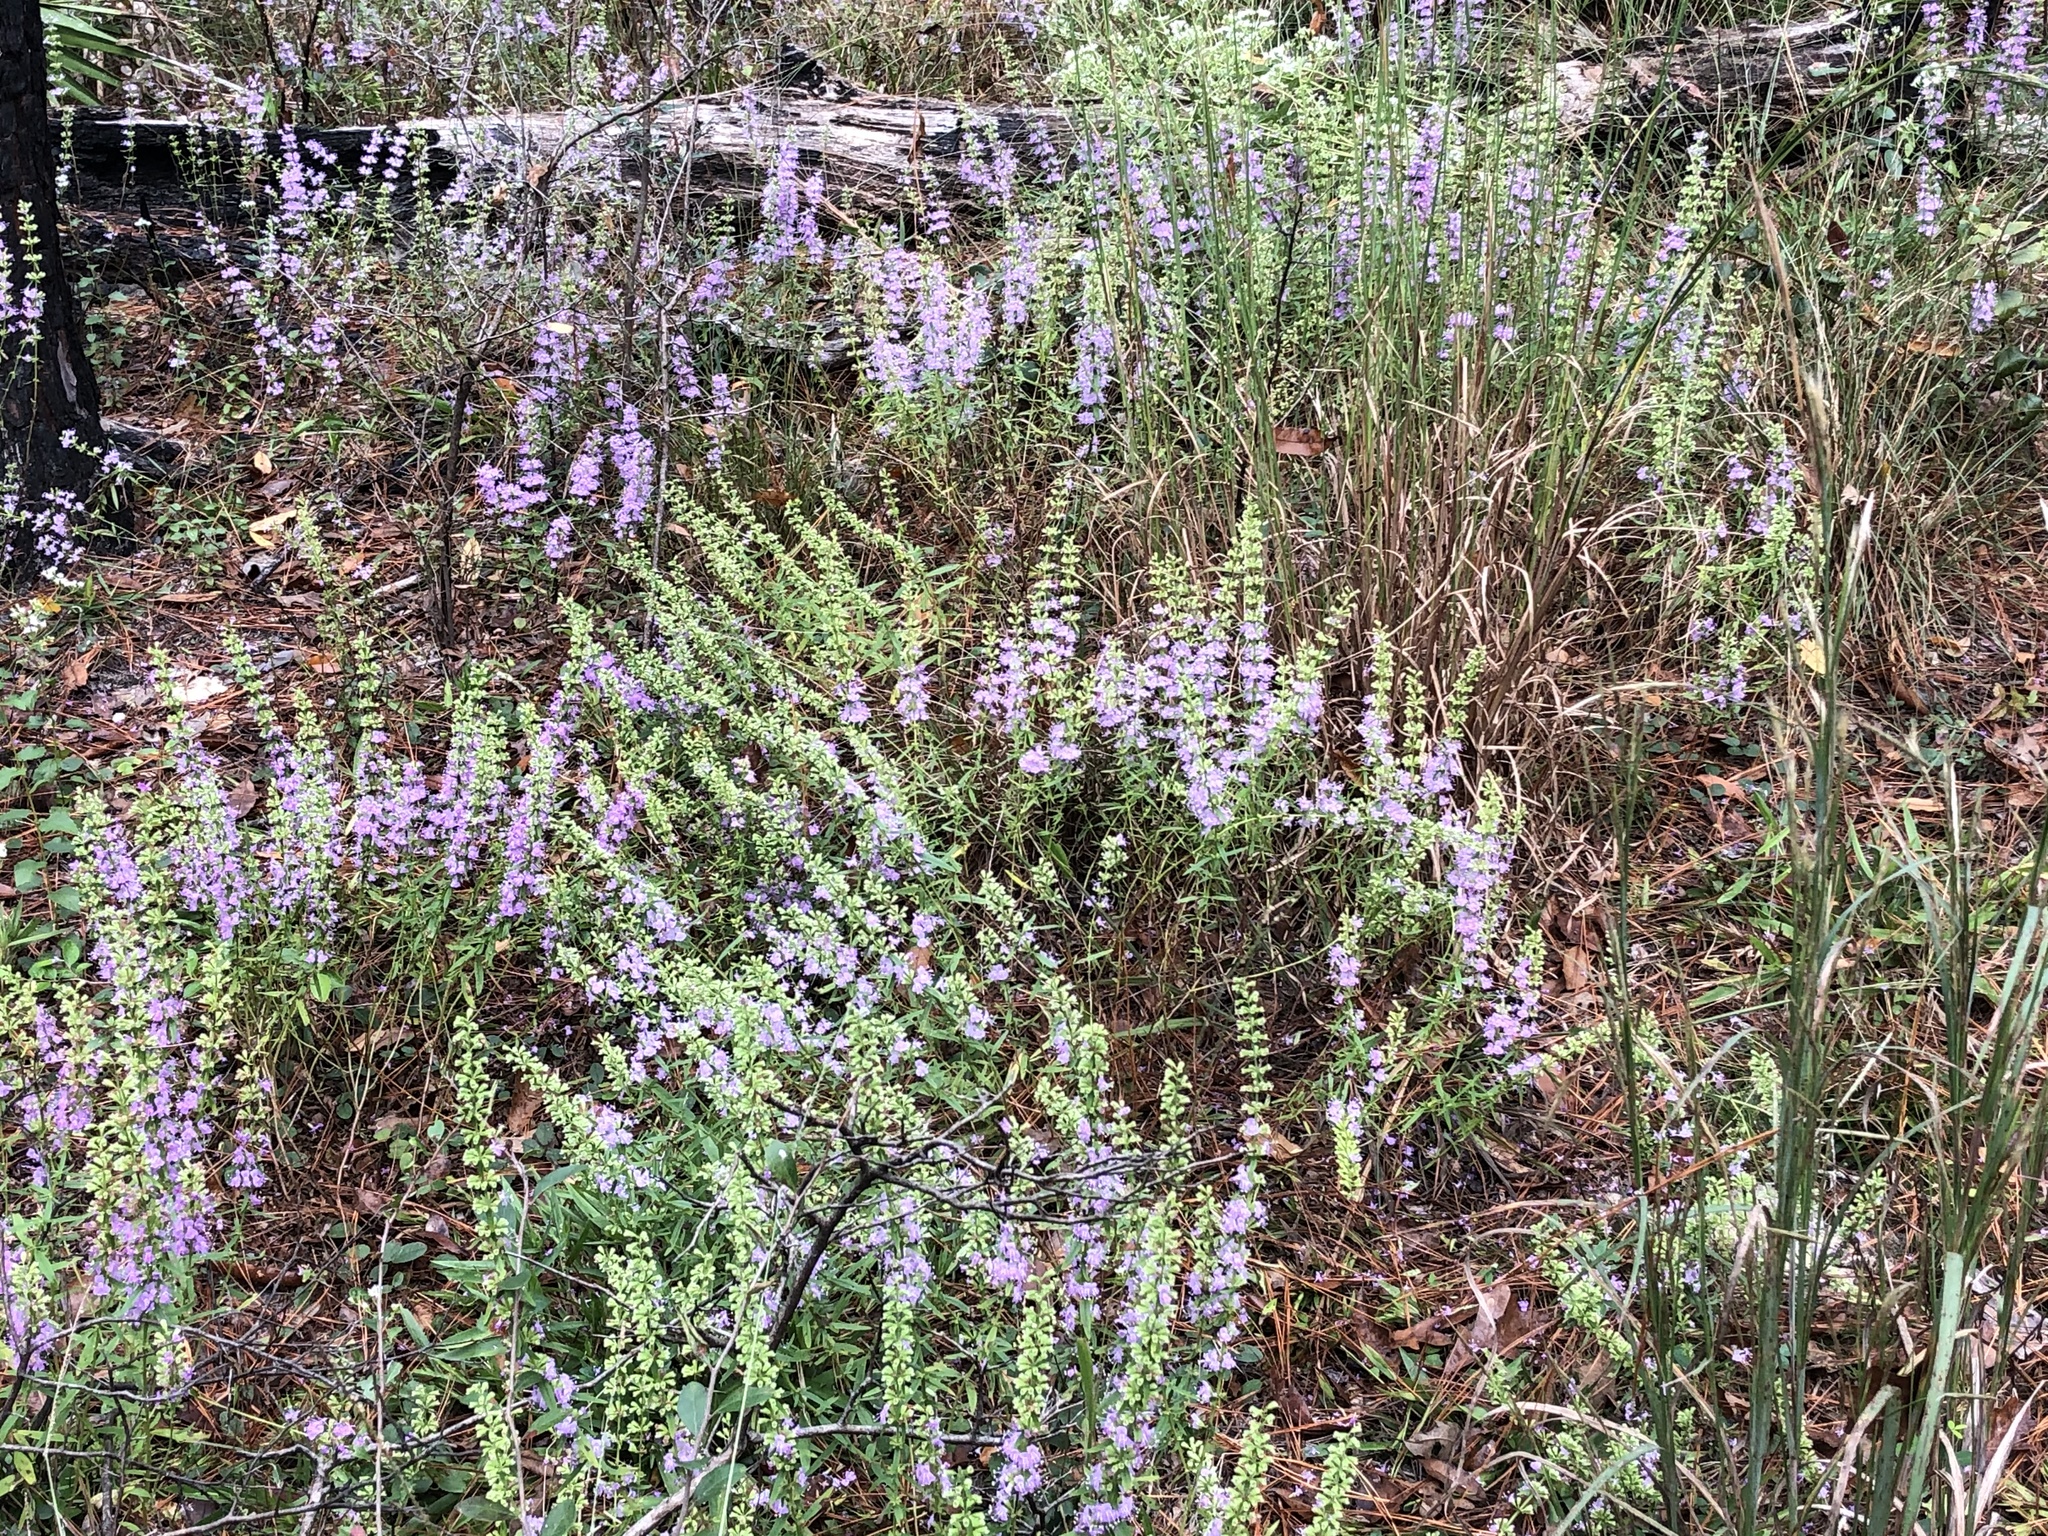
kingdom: Plantae
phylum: Tracheophyta
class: Magnoliopsida
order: Lamiales
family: Lamiaceae
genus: Dicerandra
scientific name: Dicerandra densiflora
